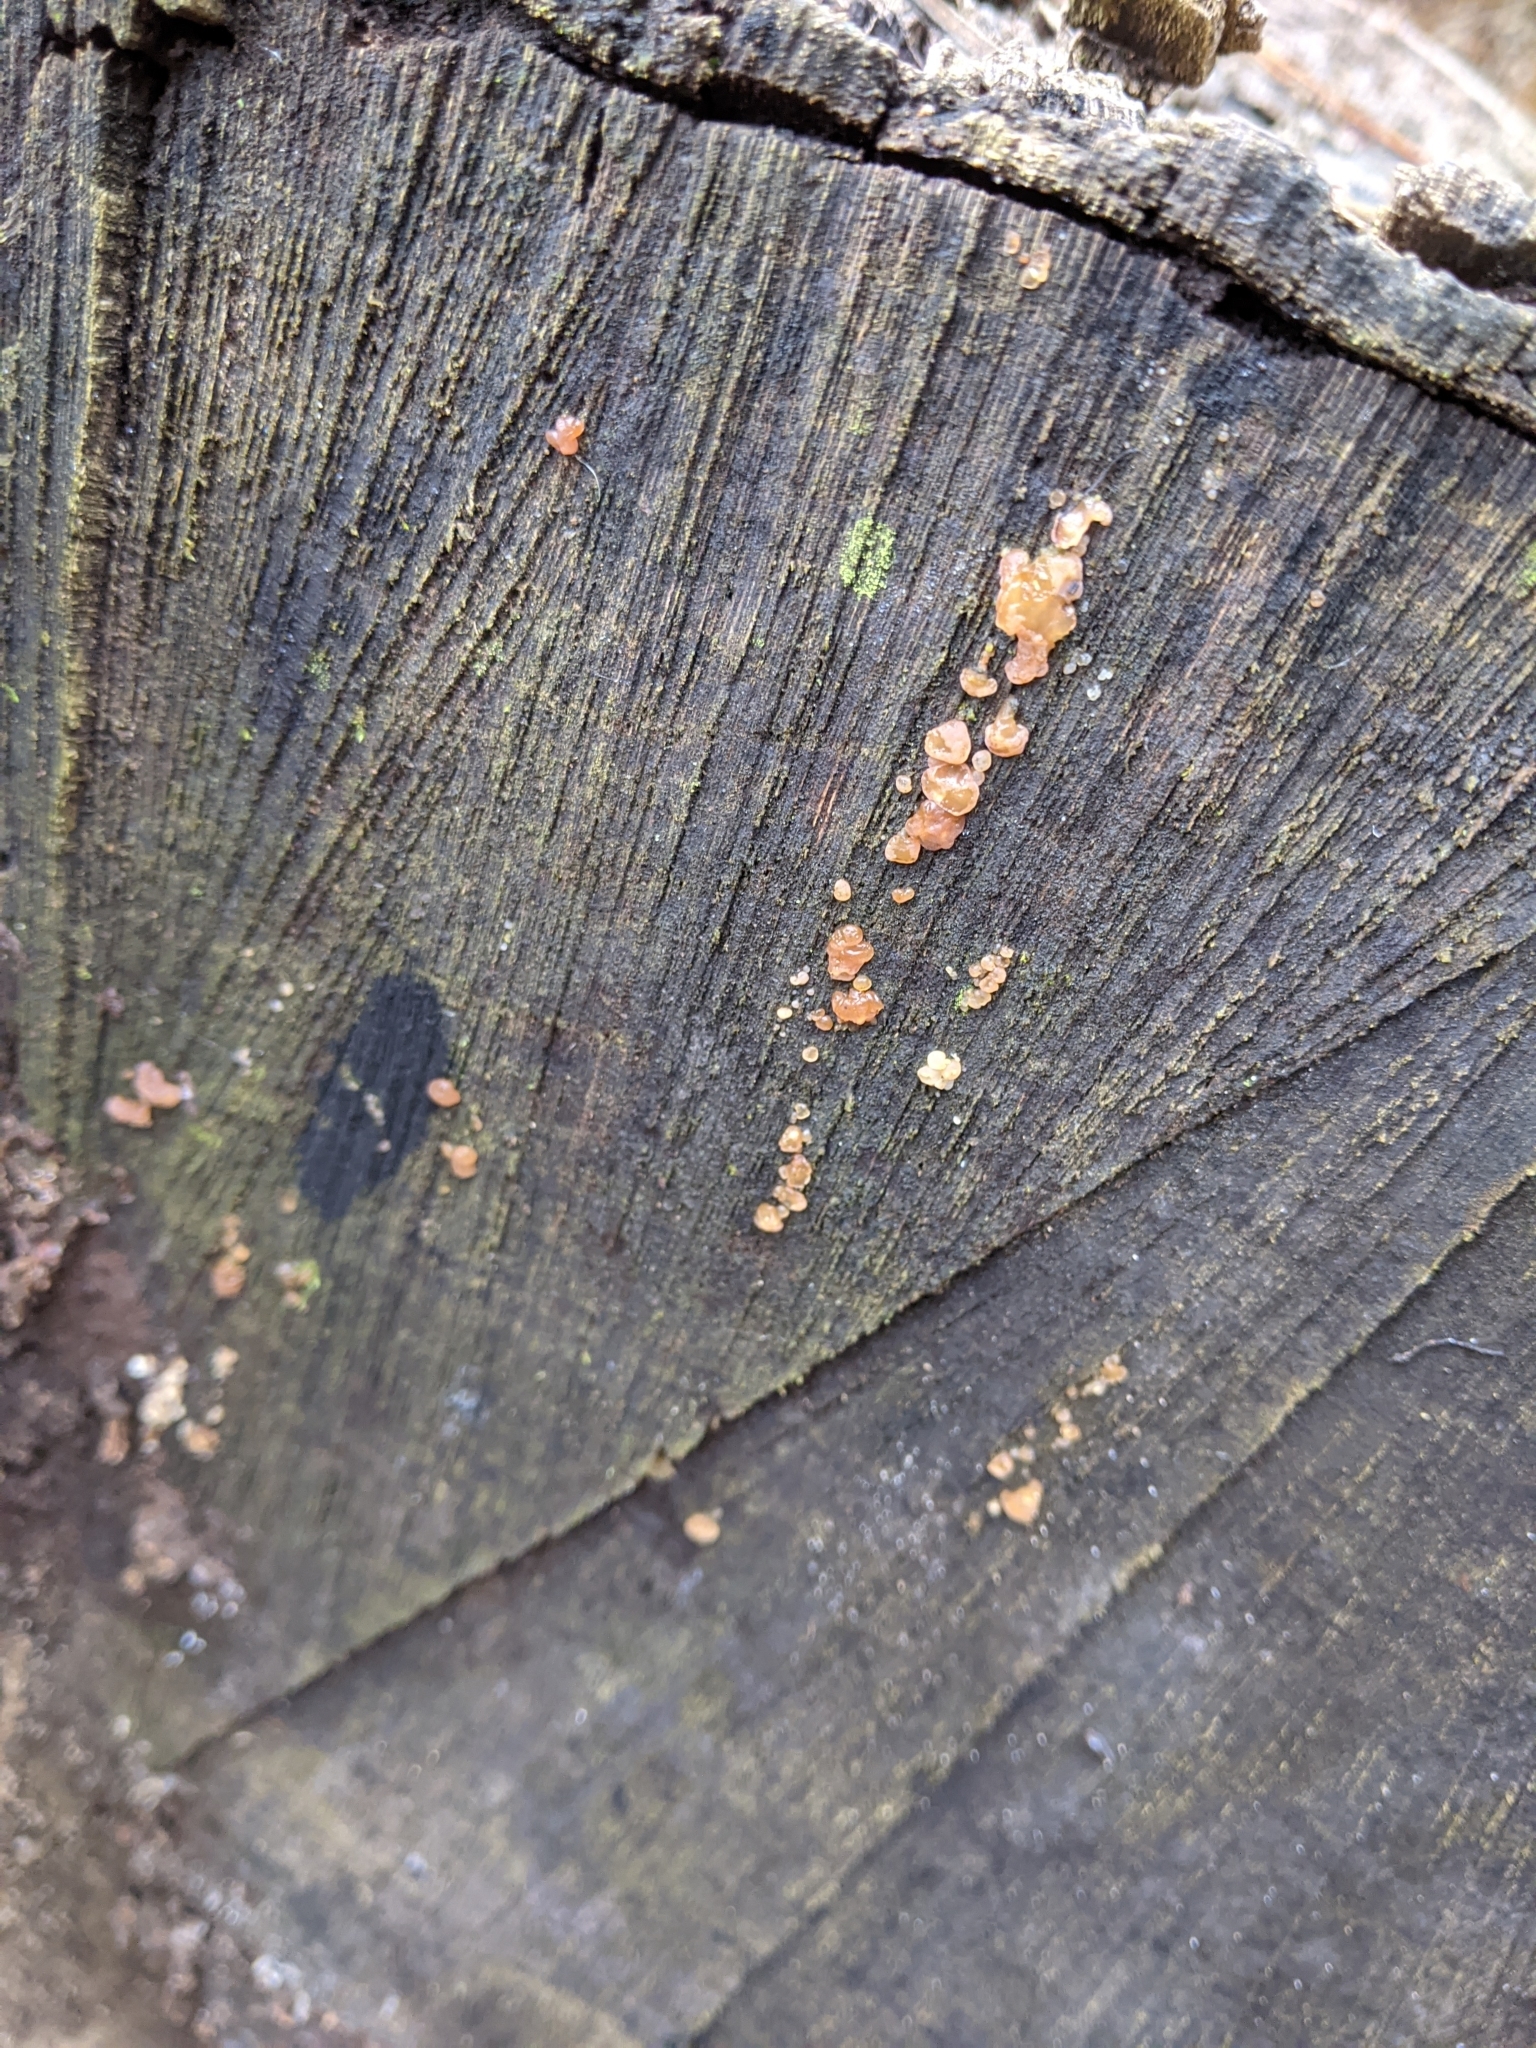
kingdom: Fungi
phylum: Basidiomycota
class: Agaricomycetes
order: Auriculariales
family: Hyaloriaceae
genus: Myxarium
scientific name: Myxarium nucleatum
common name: Crystal brain fungus
